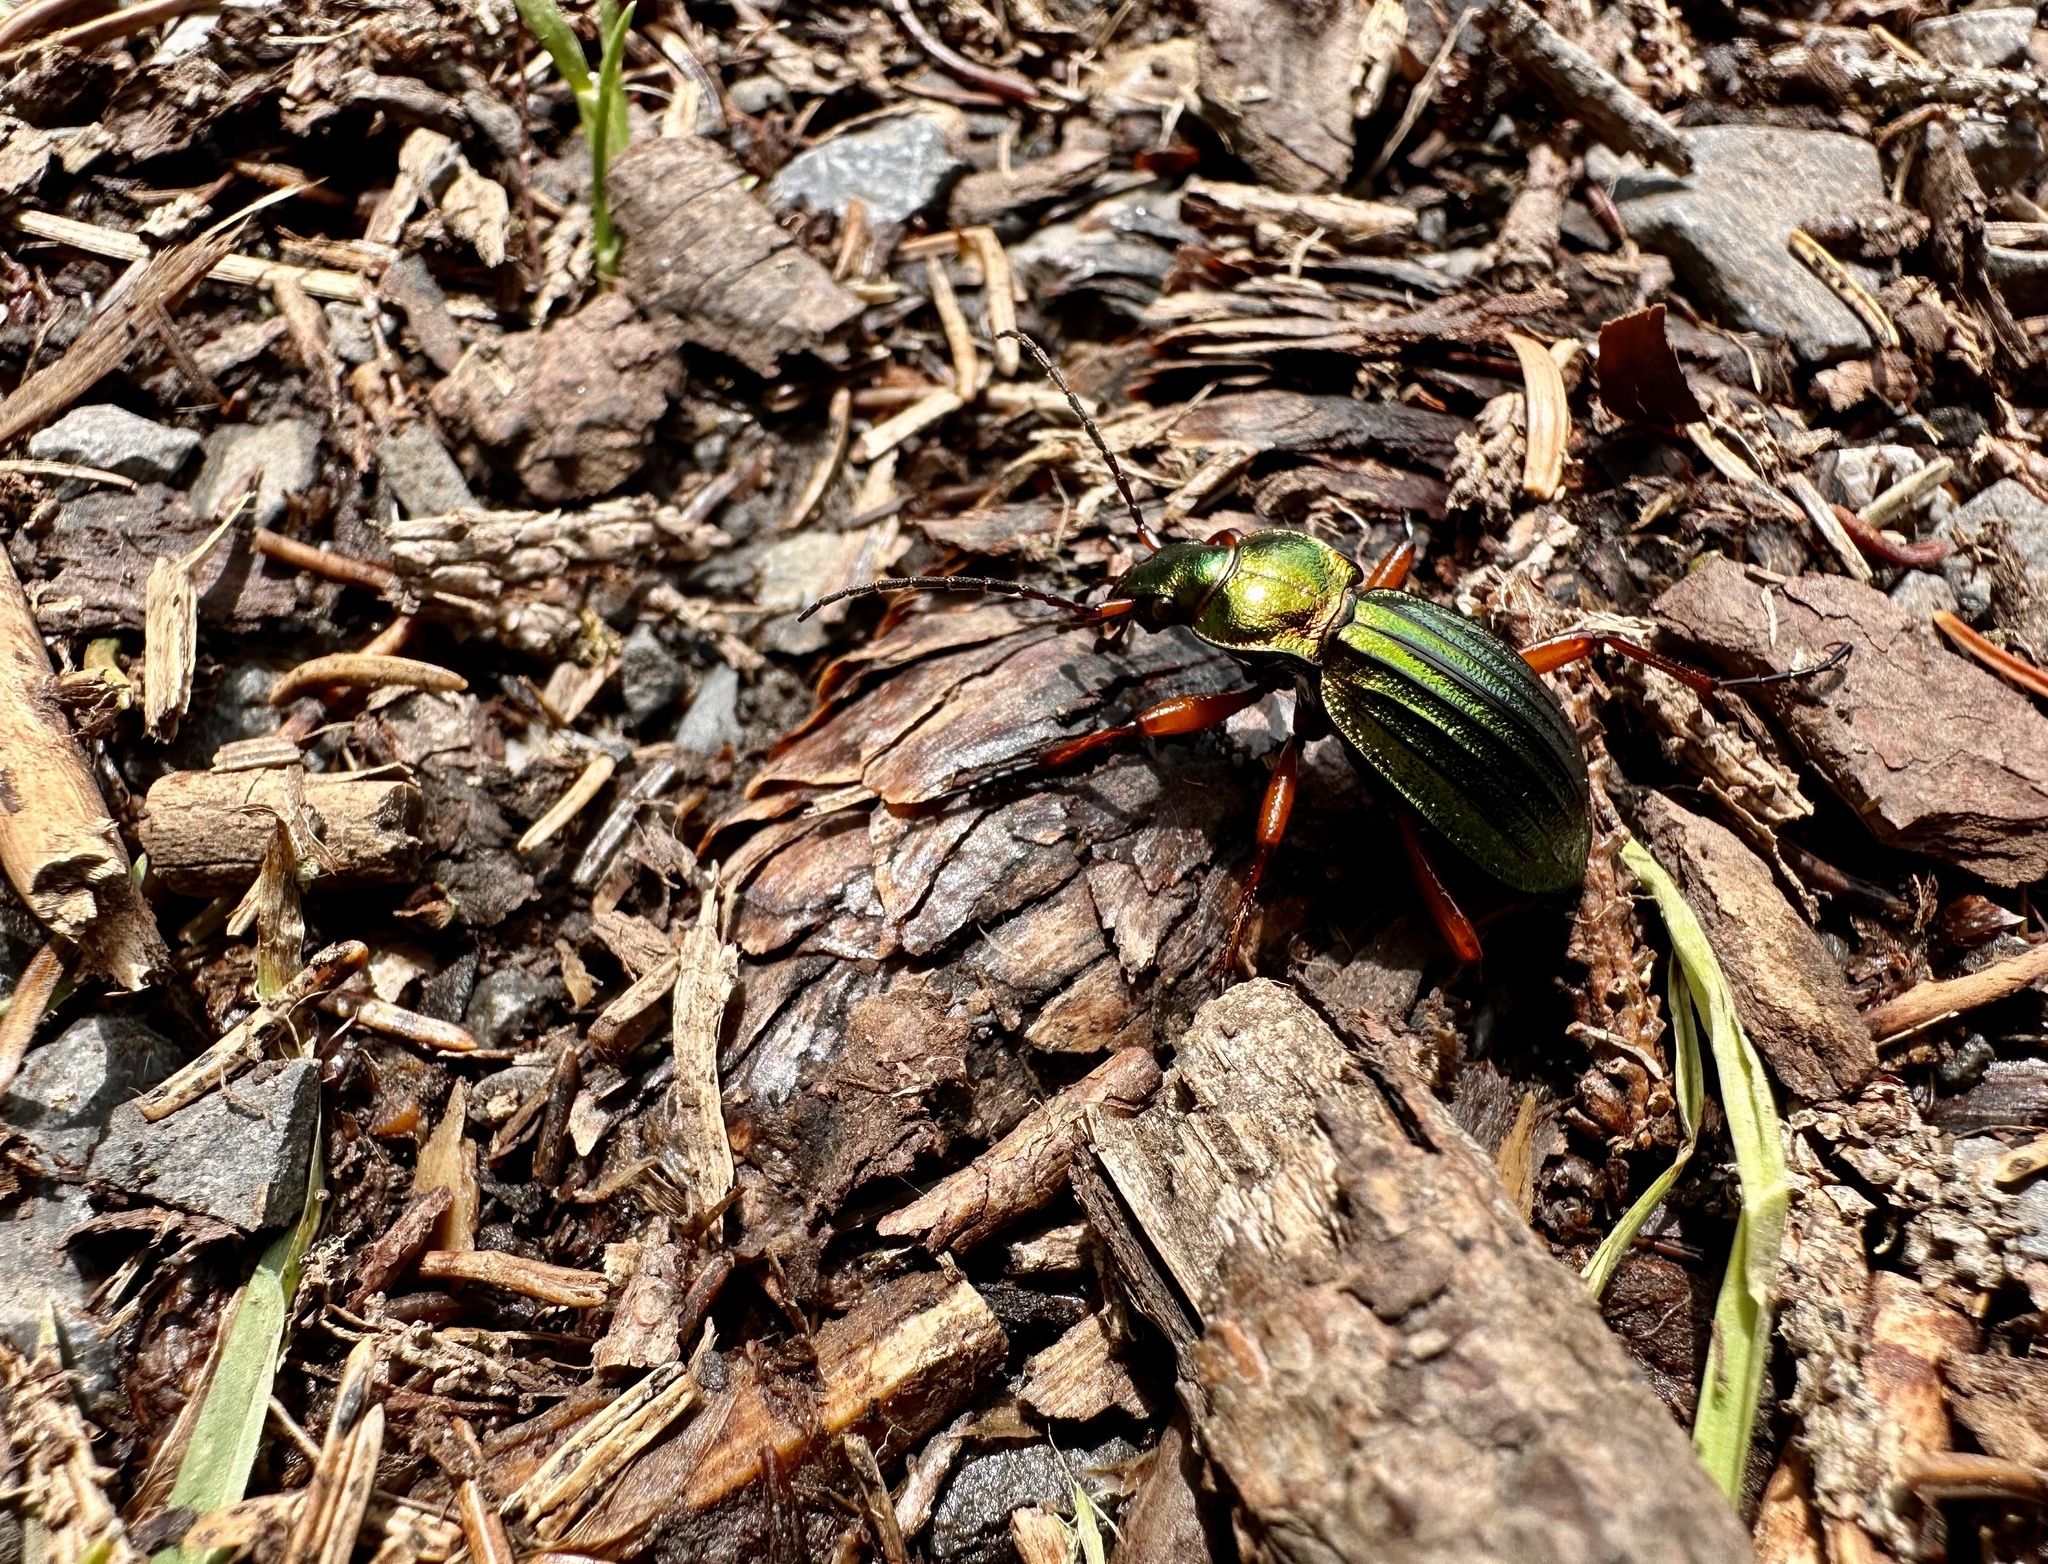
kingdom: Animalia
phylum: Arthropoda
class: Insecta
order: Coleoptera
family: Carabidae
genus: Carabus
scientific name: Carabus auronitens
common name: Carabus auronitens
